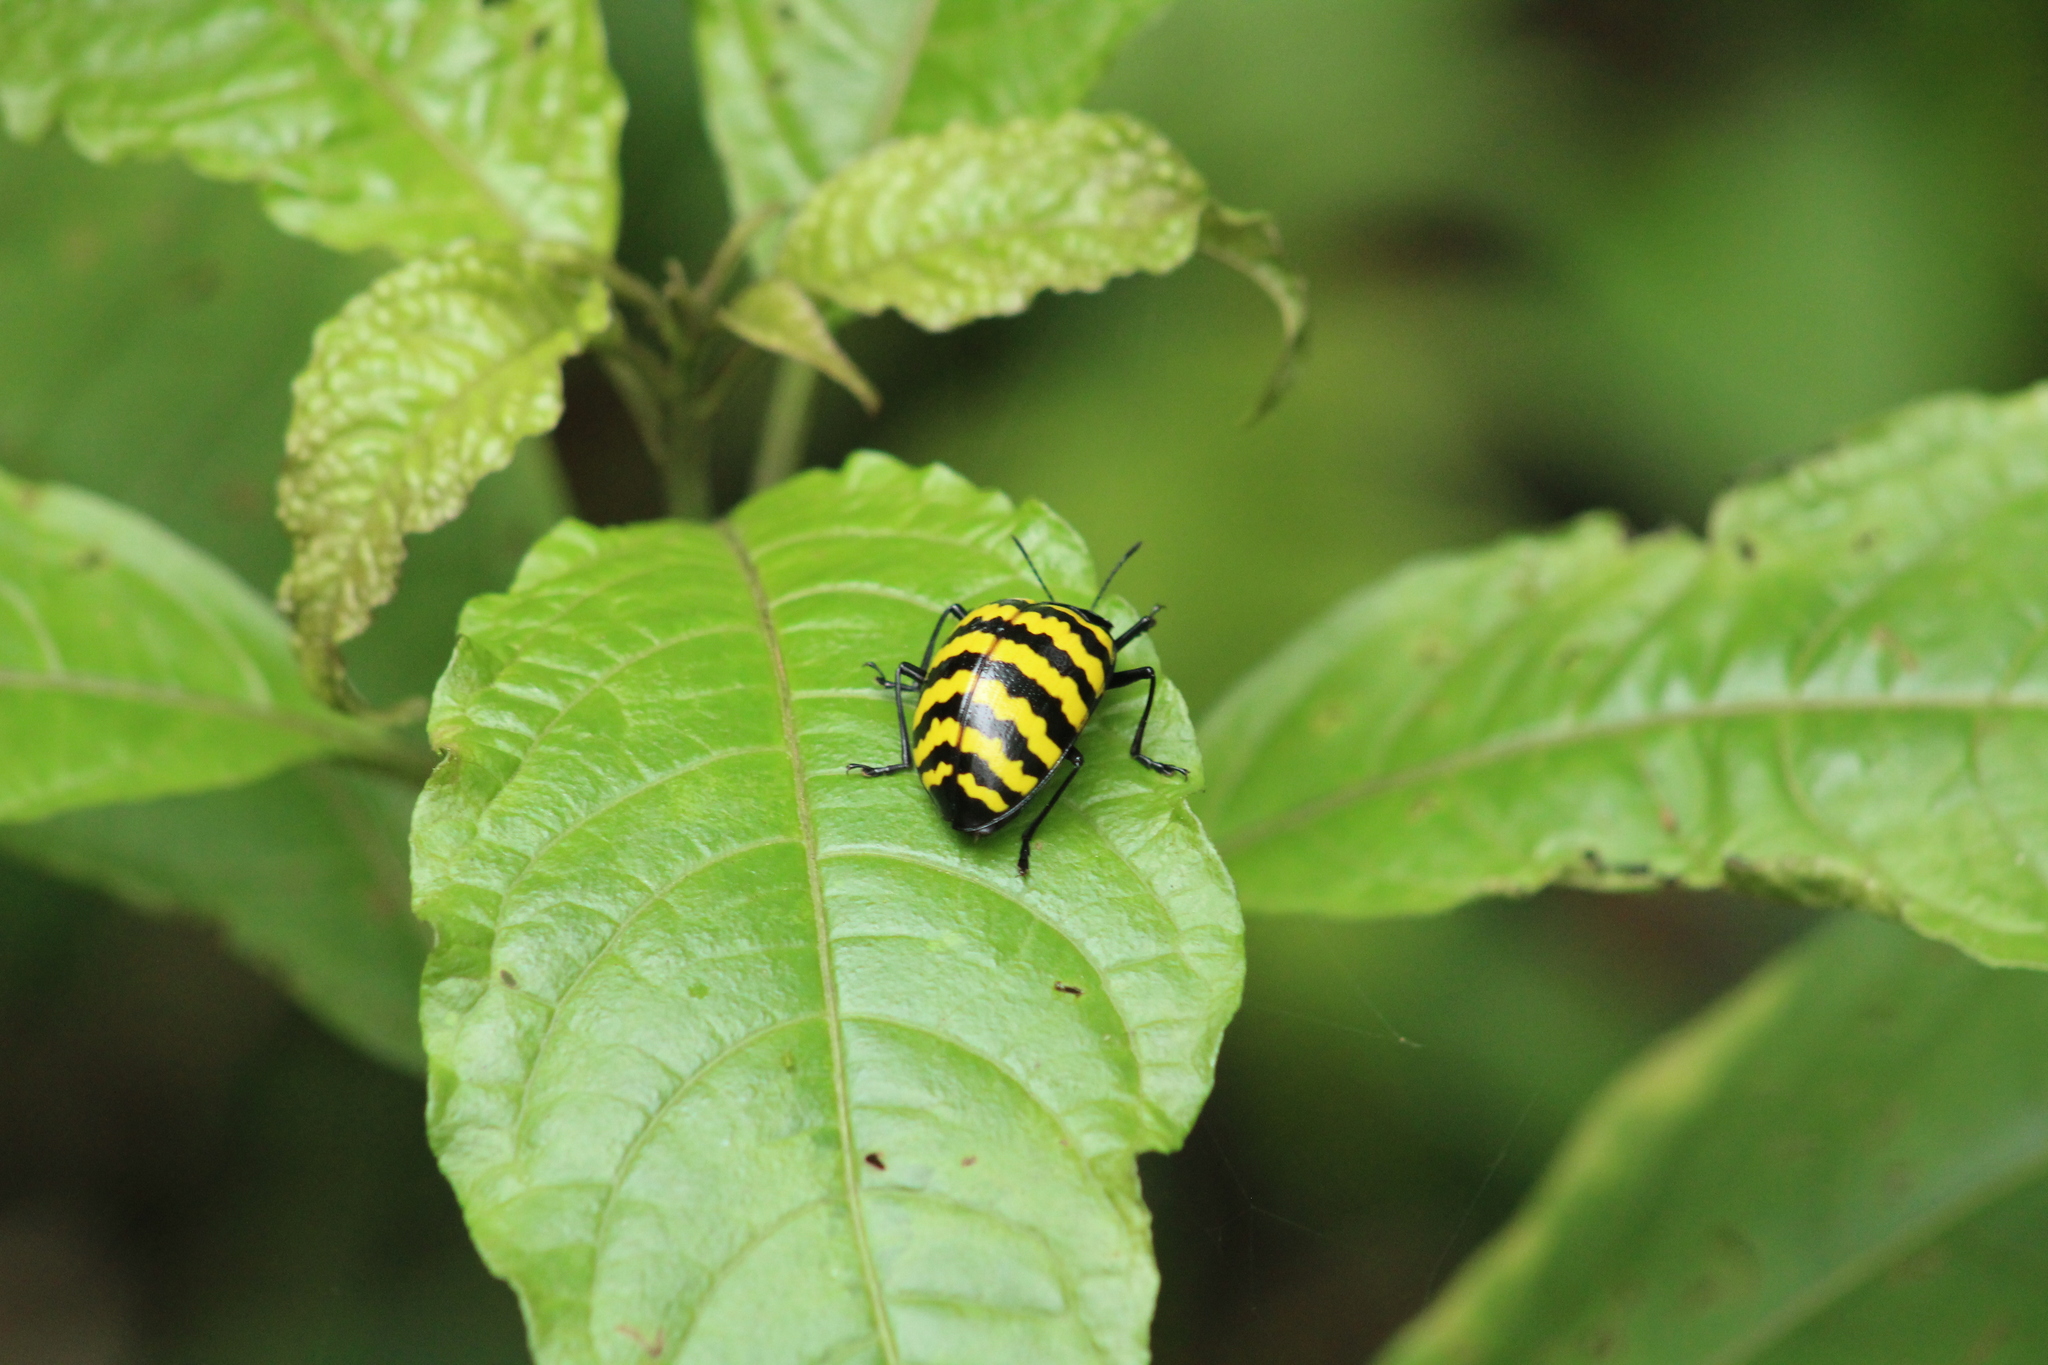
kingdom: Animalia
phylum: Arthropoda
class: Insecta
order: Coleoptera
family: Erotylidae
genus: Erotylus
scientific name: Erotylus
